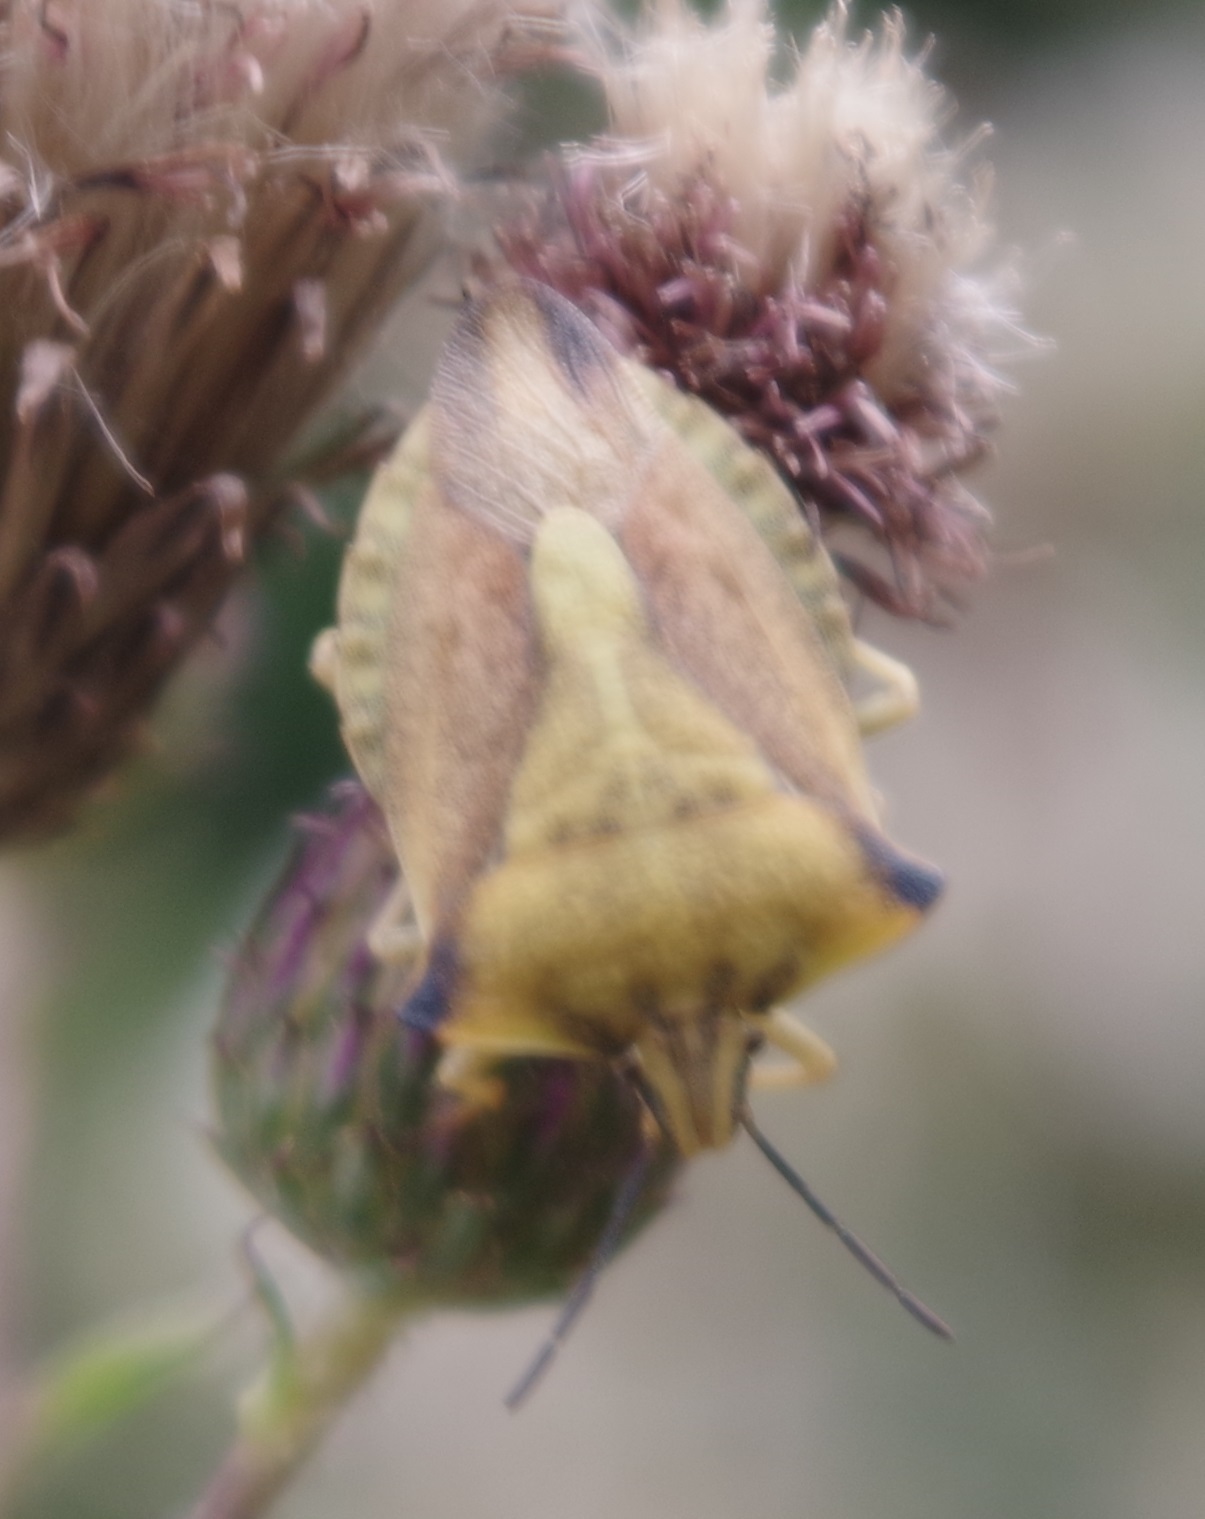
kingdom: Animalia
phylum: Arthropoda
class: Insecta
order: Hemiptera
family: Pentatomidae
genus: Carpocoris
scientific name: Carpocoris fuscispinus
